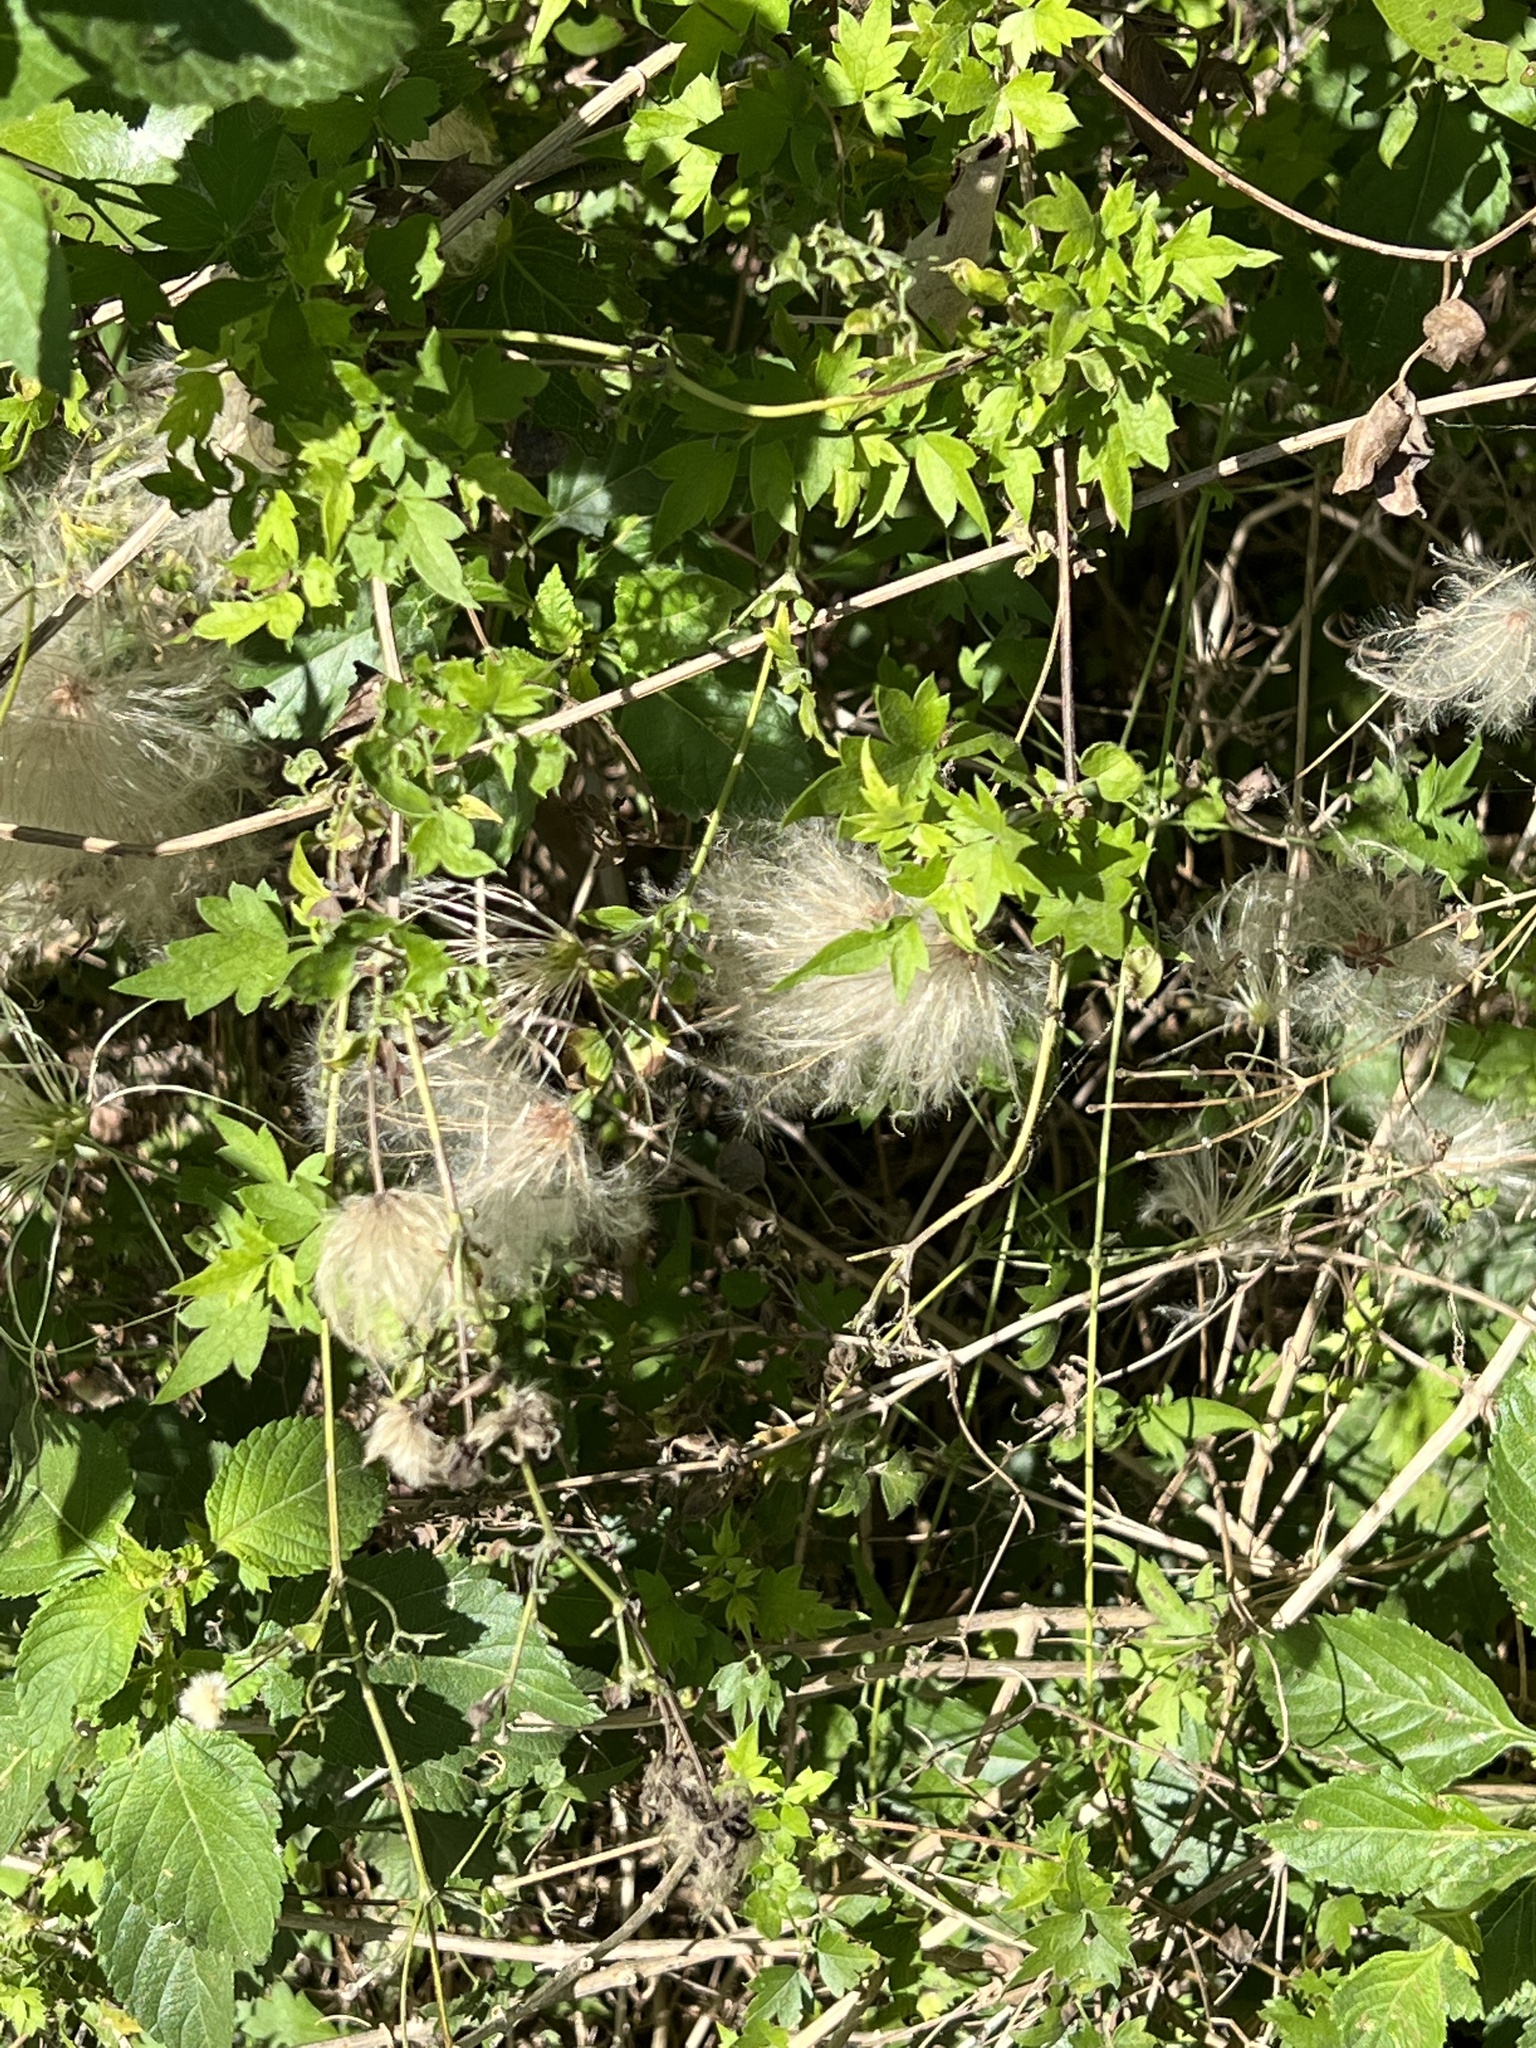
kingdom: Plantae
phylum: Tracheophyta
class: Magnoliopsida
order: Ranunculales
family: Ranunculaceae
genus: Clematis
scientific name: Clematis drummondii
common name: Texas virgin's bower
